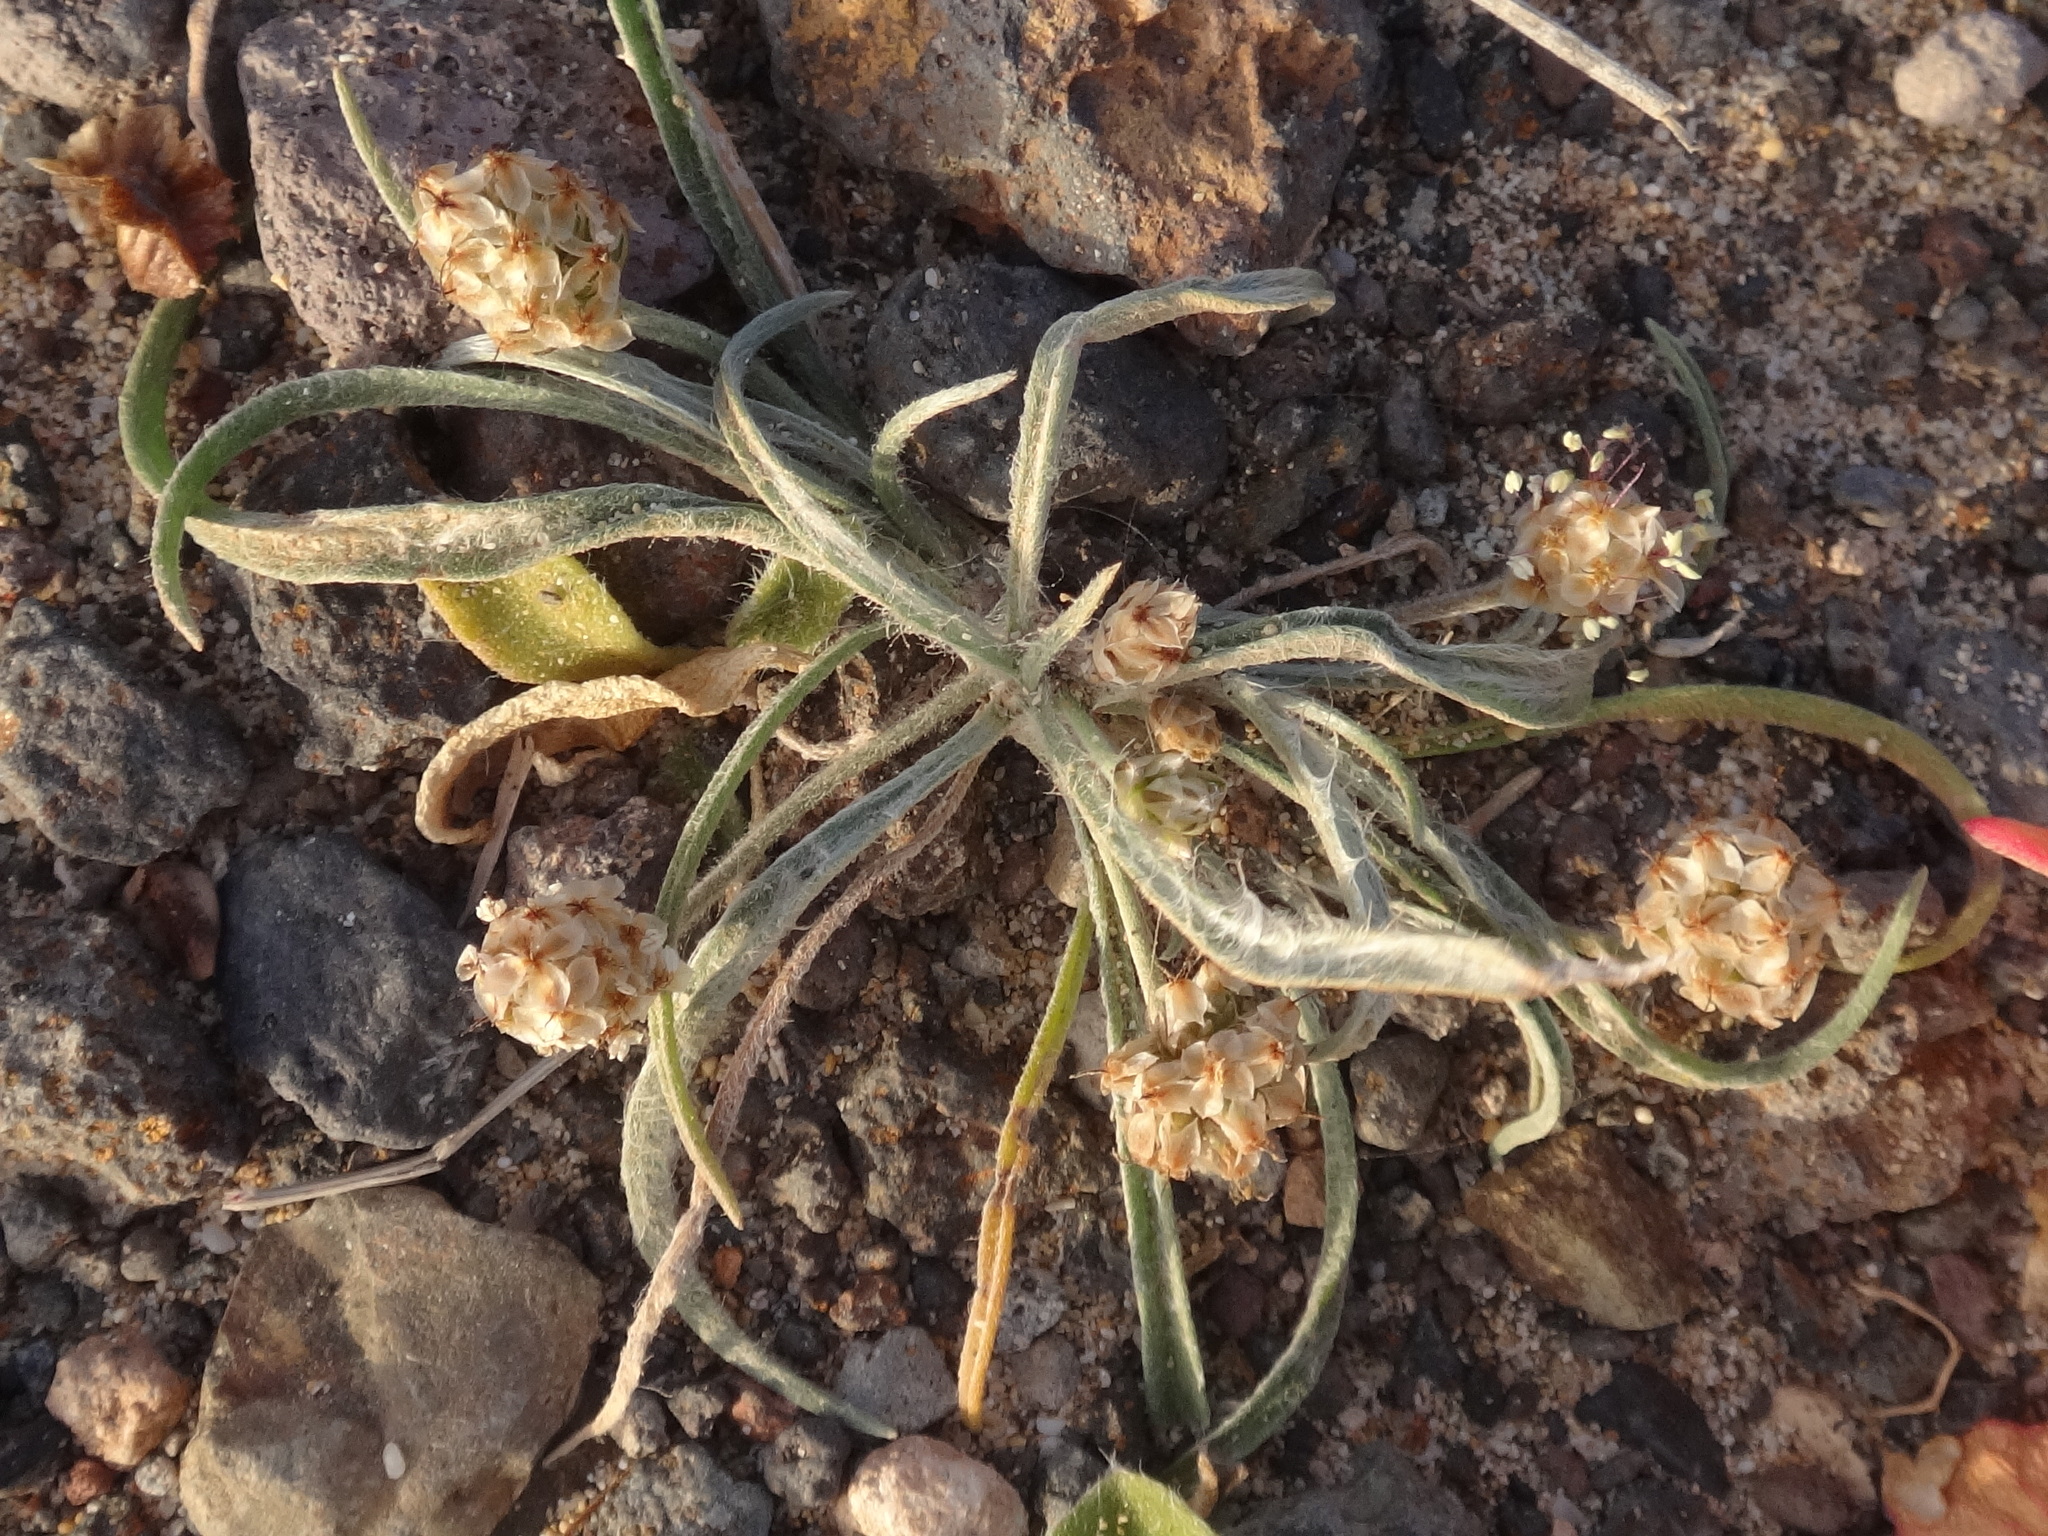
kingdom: Plantae
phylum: Tracheophyta
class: Magnoliopsida
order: Lamiales
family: Plantaginaceae
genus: Plantago
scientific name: Plantago ovata
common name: Blond plantain
